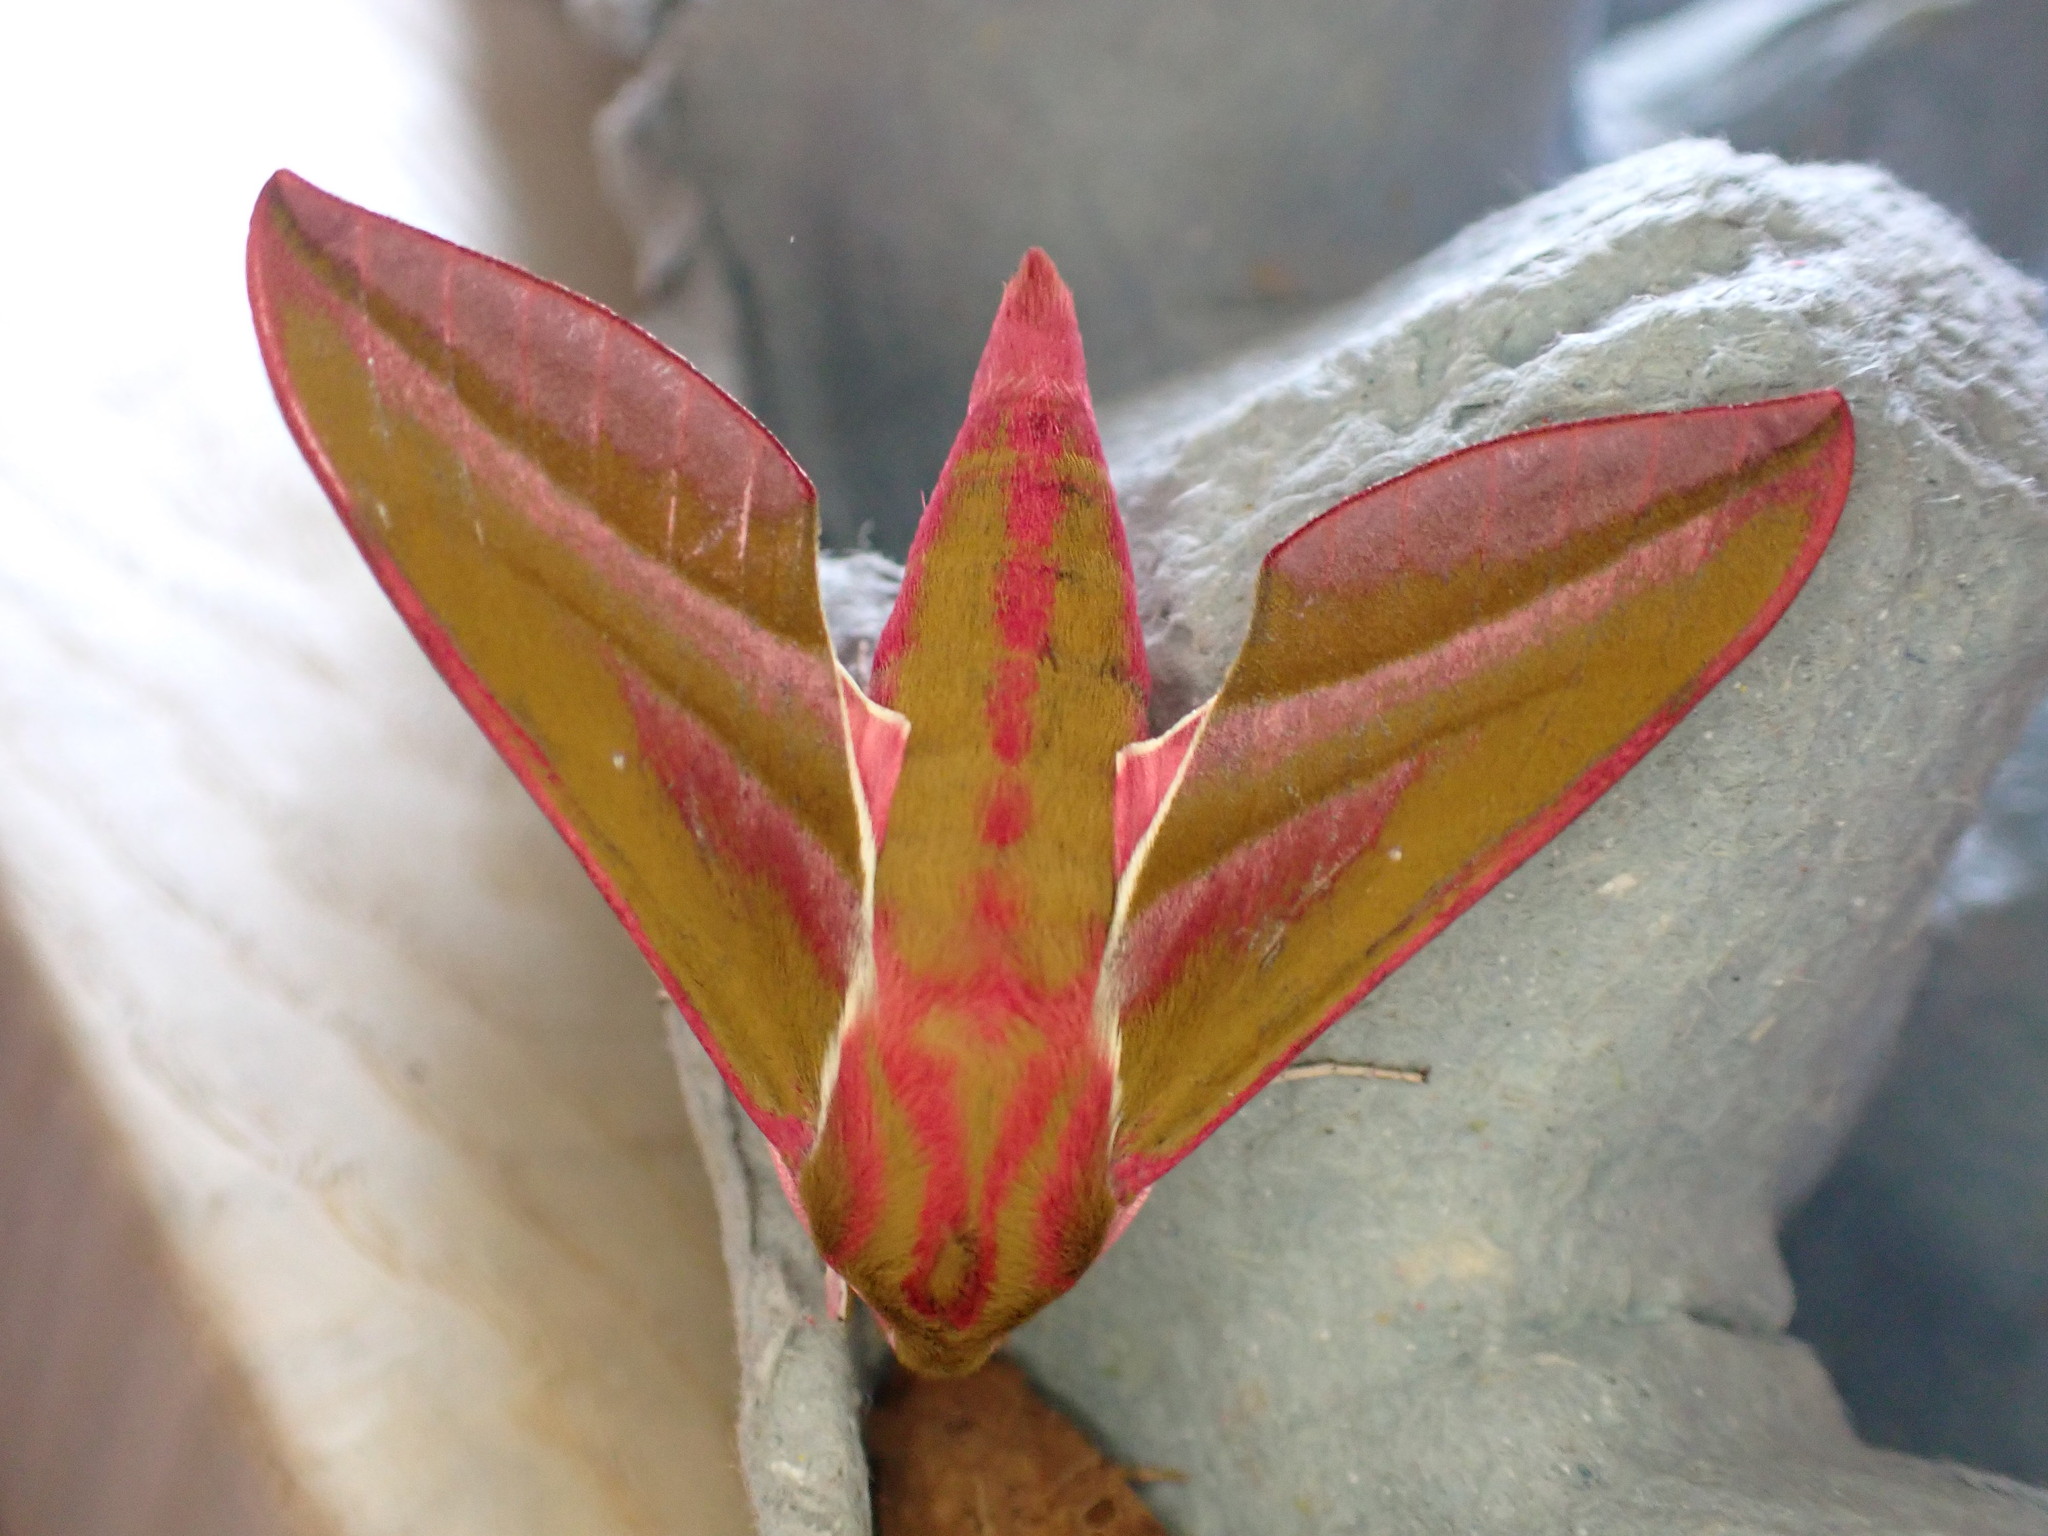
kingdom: Animalia
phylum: Arthropoda
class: Insecta
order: Lepidoptera
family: Sphingidae
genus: Deilephila
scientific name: Deilephila elpenor
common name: Elephant hawk-moth
